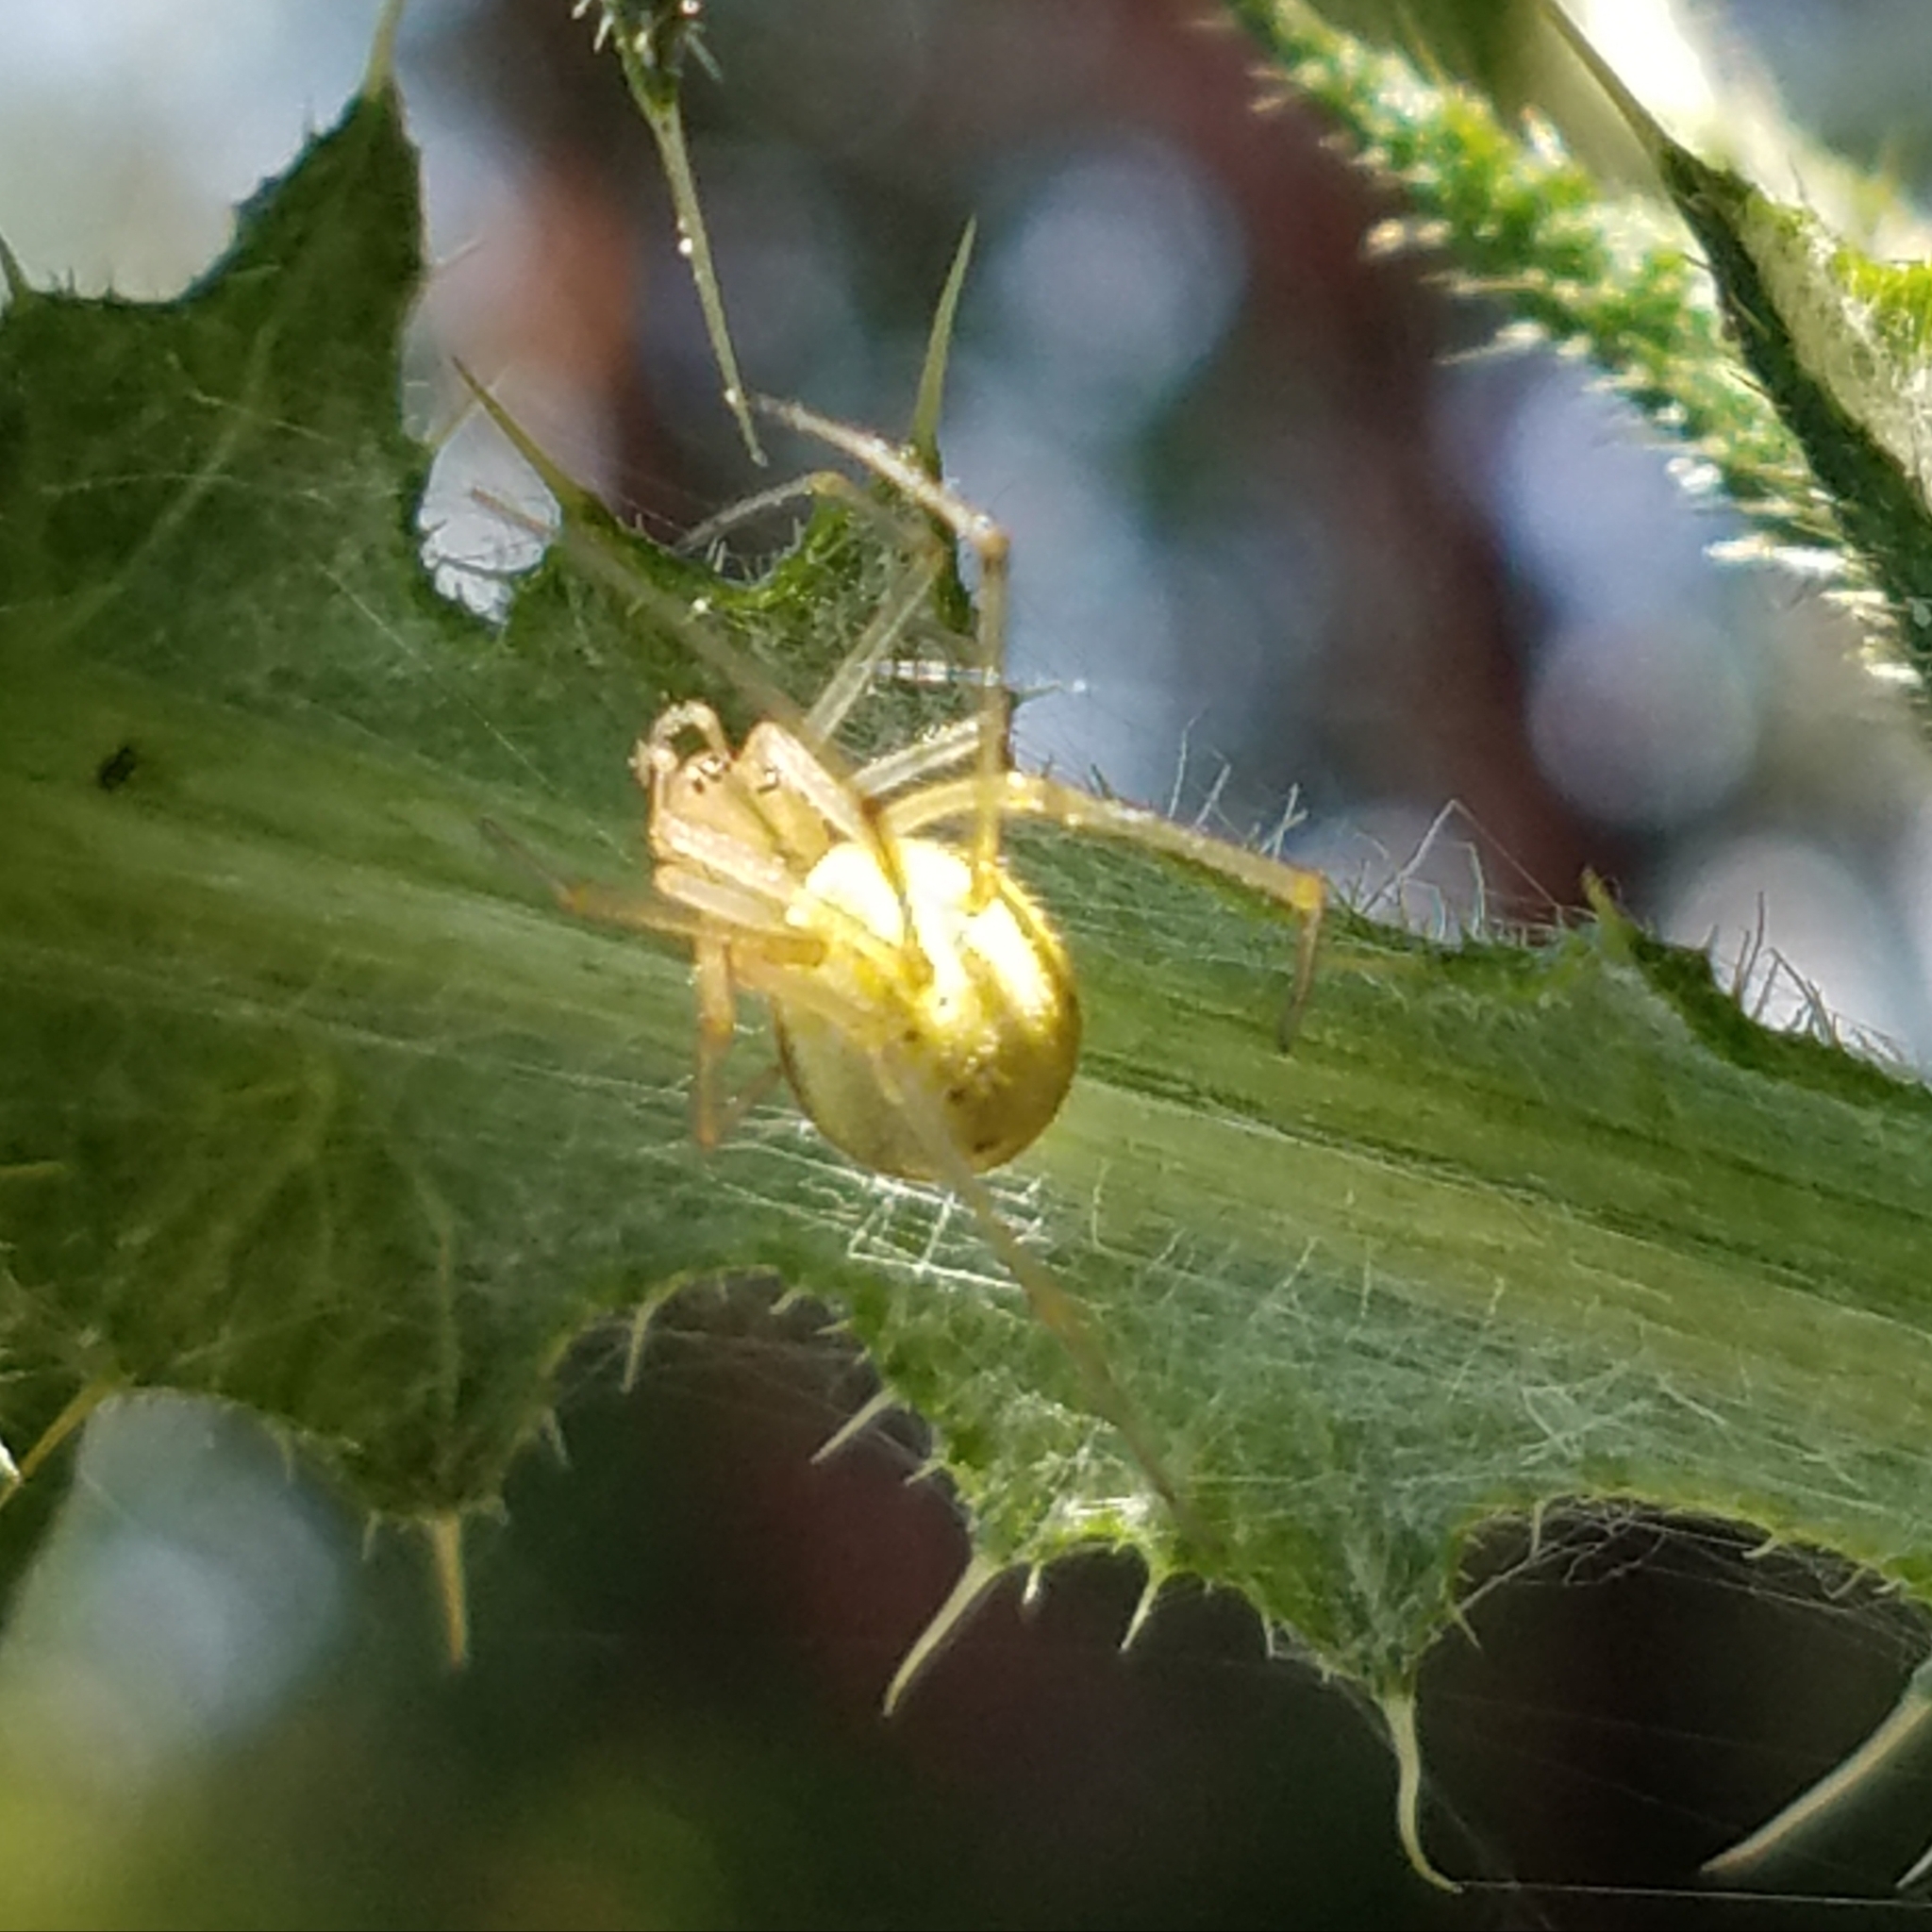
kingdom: Animalia
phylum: Arthropoda
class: Arachnida
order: Araneae
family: Theridiidae
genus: Enoplognatha
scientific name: Enoplognatha ovata
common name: Common candy-striped spider
